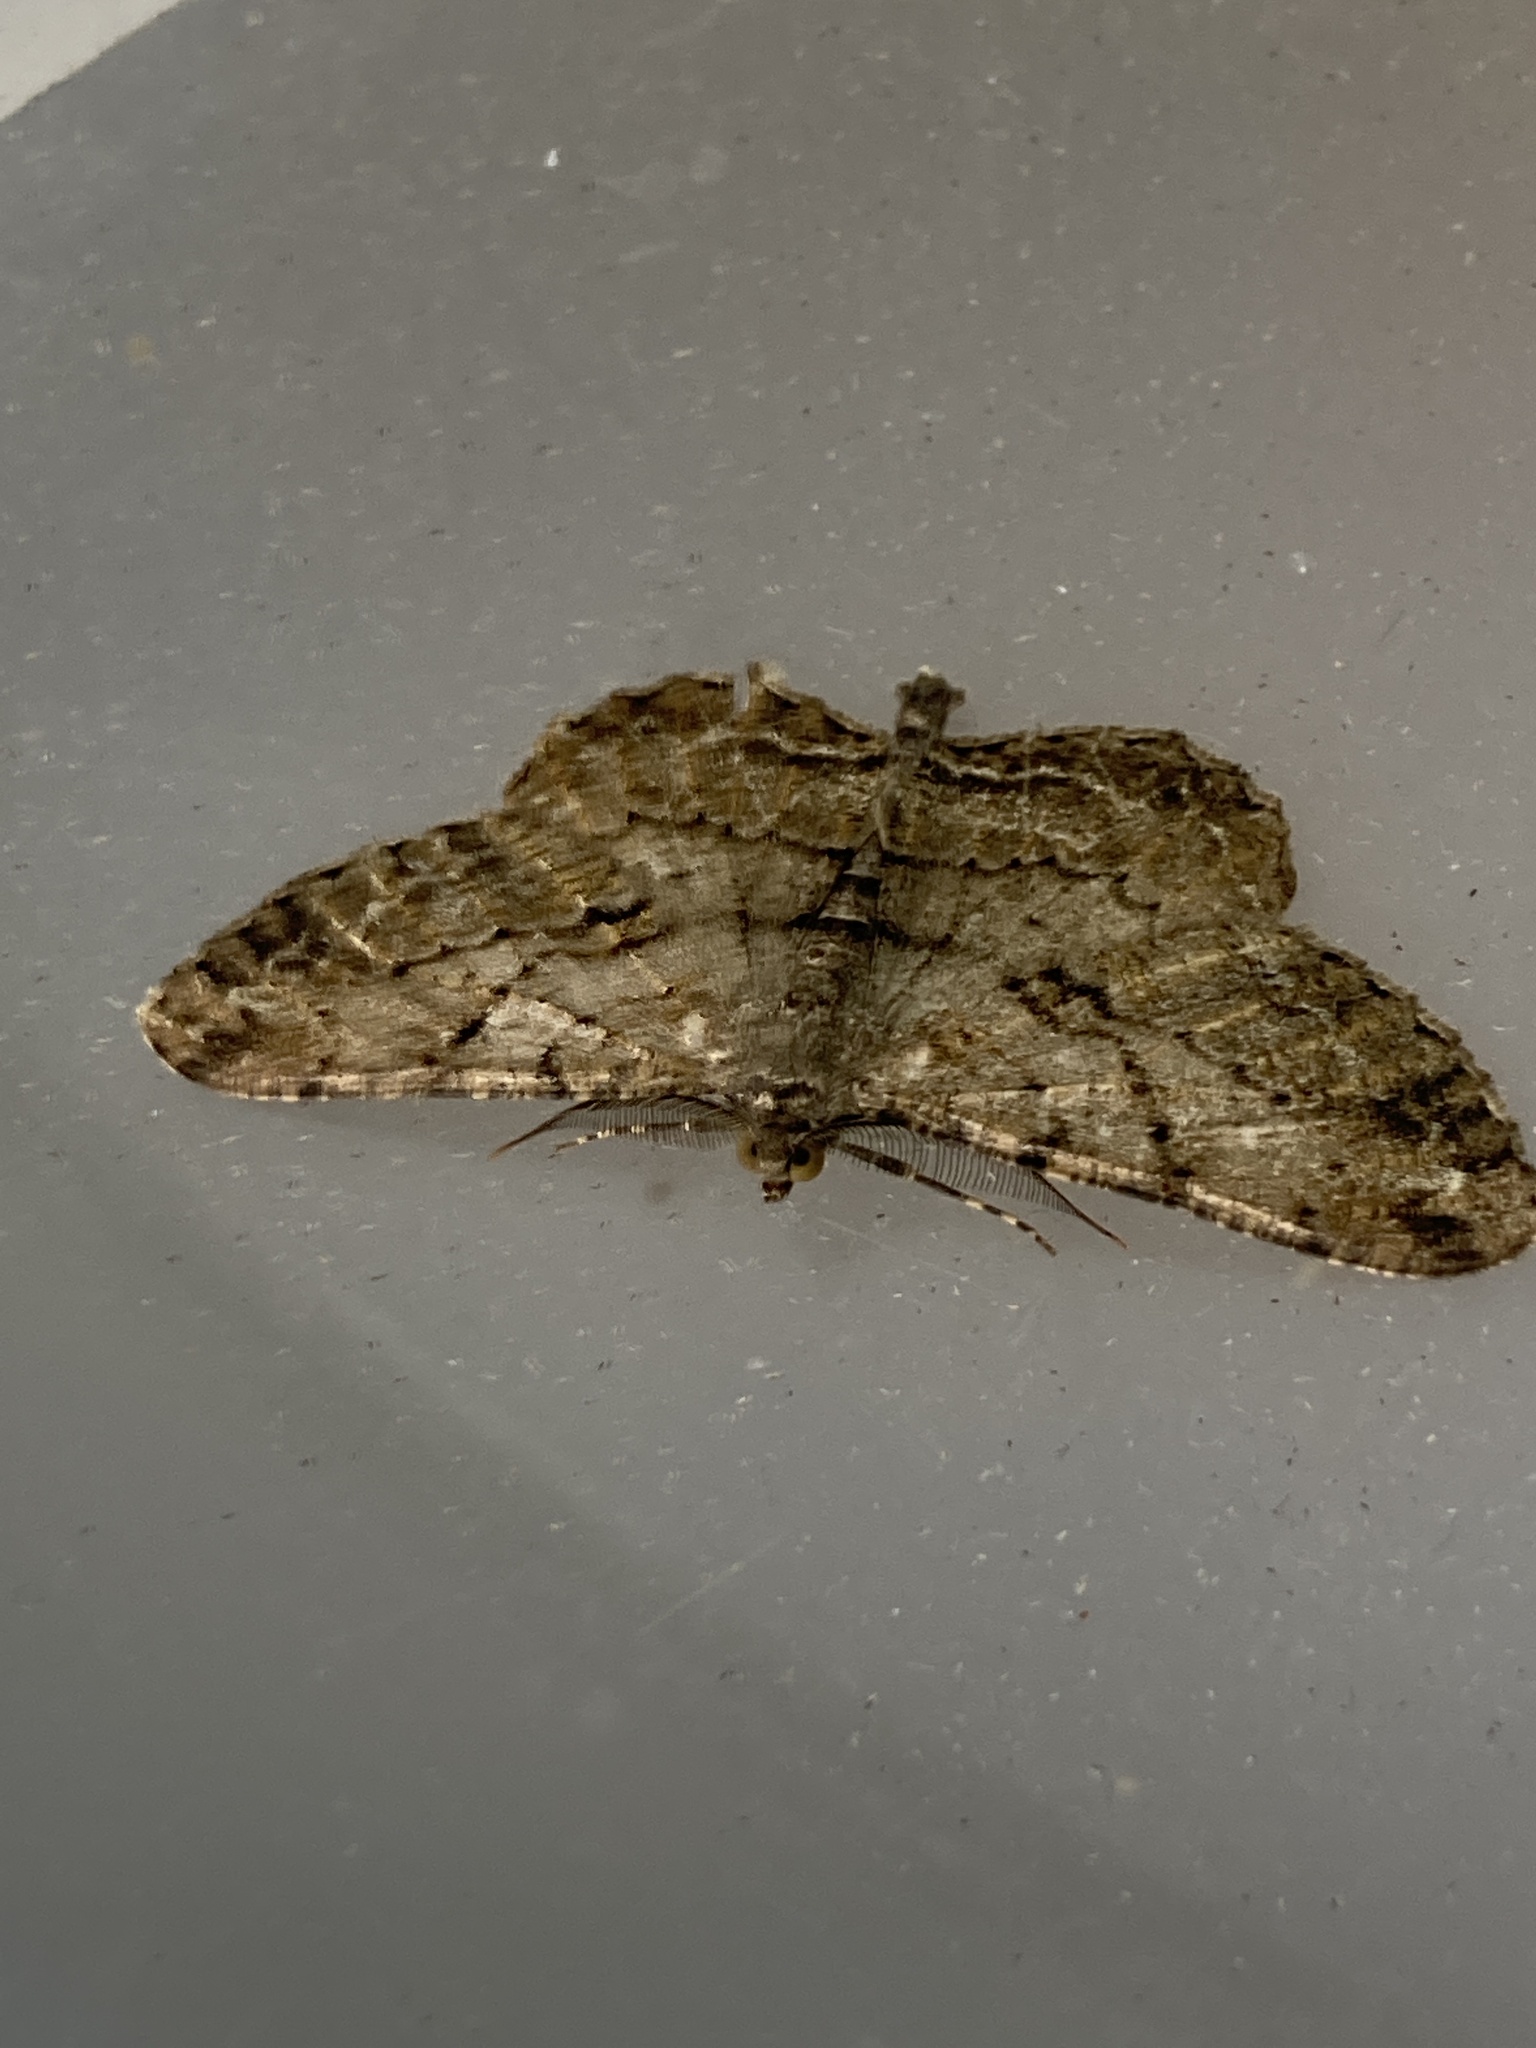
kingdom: Animalia
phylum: Arthropoda
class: Insecta
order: Lepidoptera
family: Geometridae
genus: Peribatodes
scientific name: Peribatodes rhomboidaria
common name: Willow beauty
